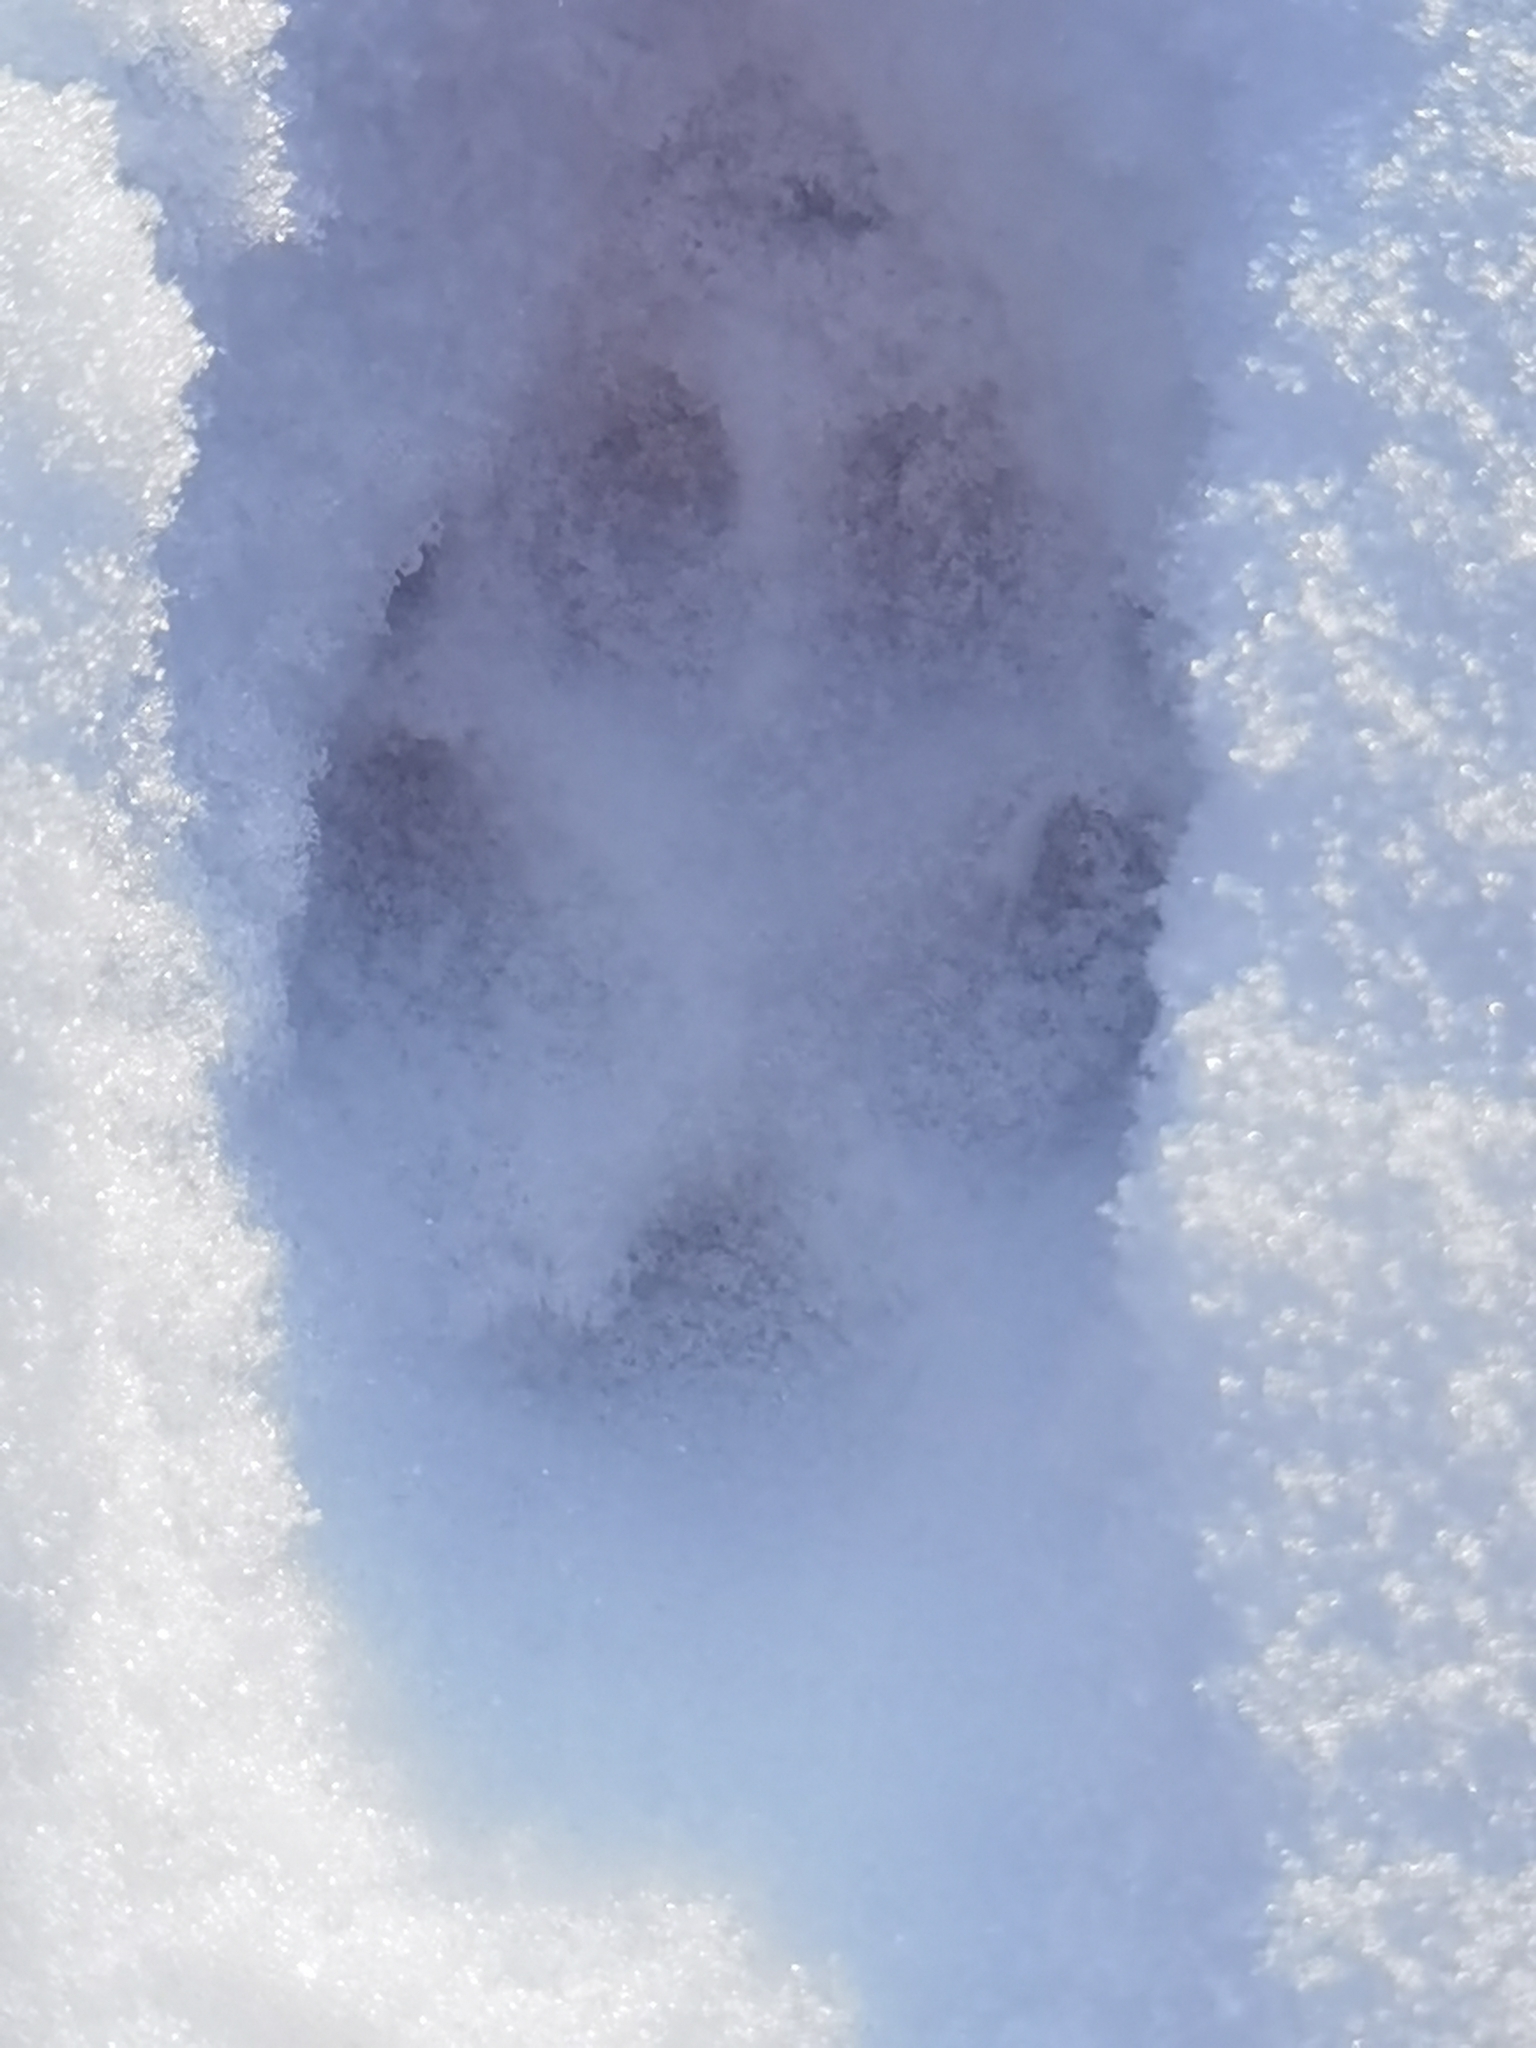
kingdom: Animalia
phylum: Chordata
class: Mammalia
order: Carnivora
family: Canidae
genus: Vulpes
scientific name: Vulpes vulpes
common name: Red fox
